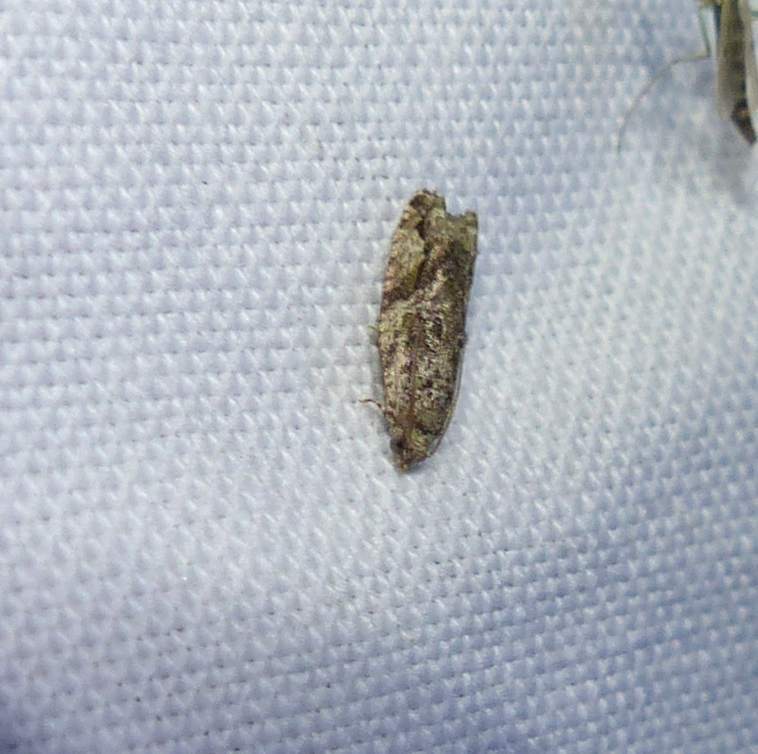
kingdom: Animalia
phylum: Arthropoda
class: Insecta
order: Lepidoptera
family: Tortricidae
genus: Proteoteras
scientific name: Proteoteras aesculana
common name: Maple twig borer moth
